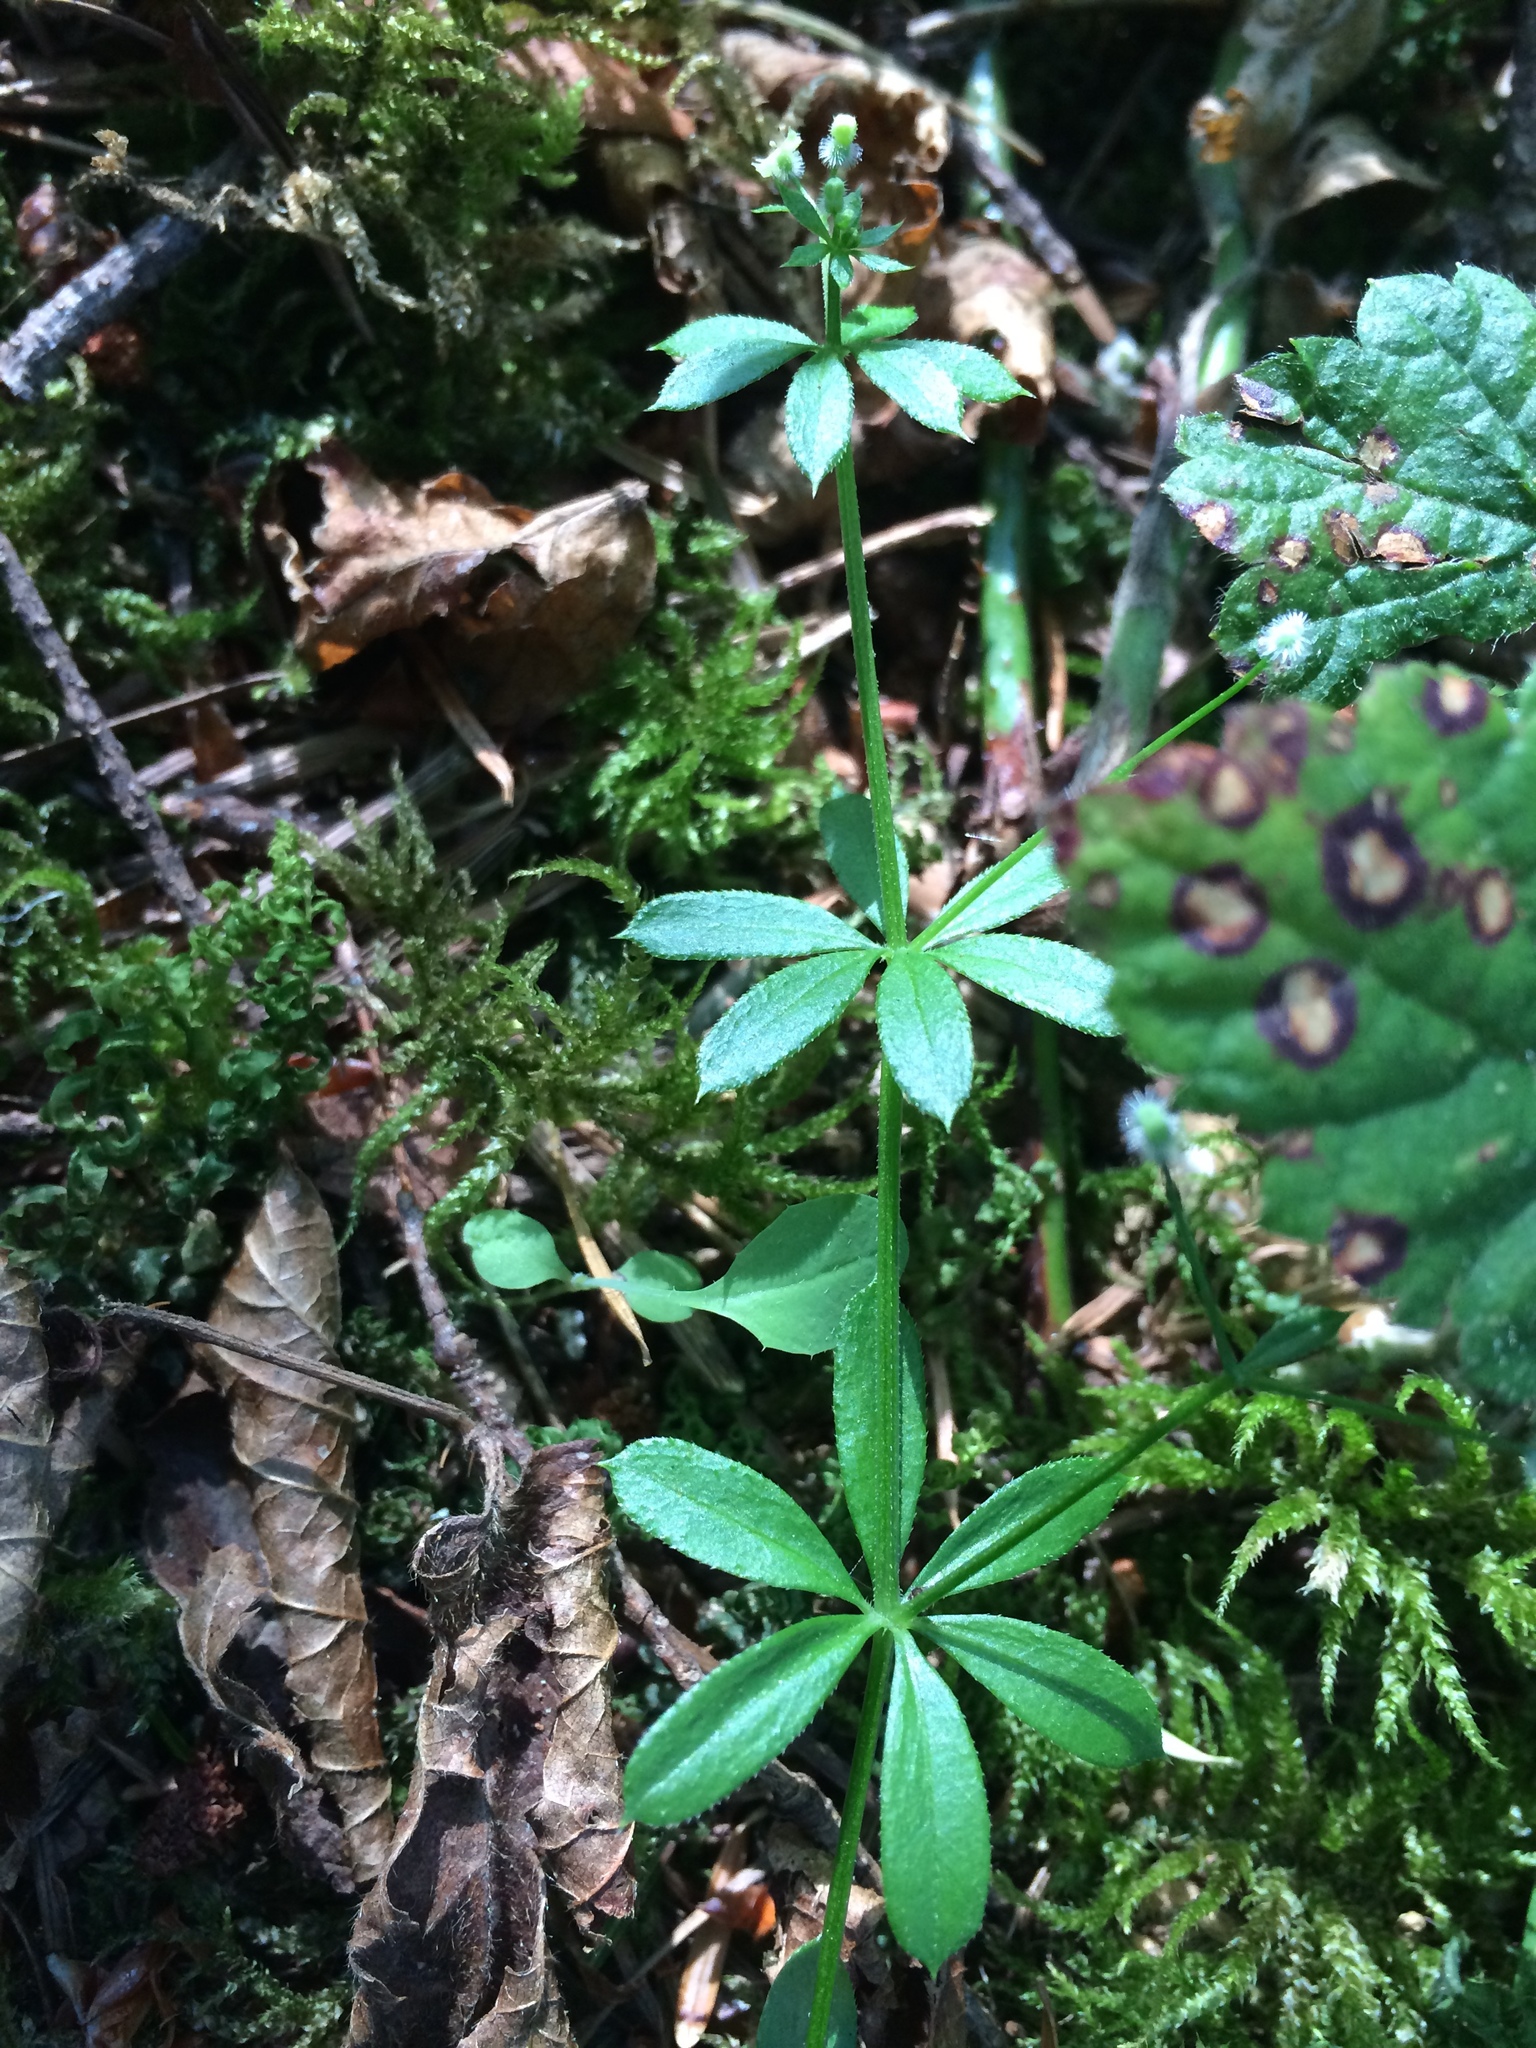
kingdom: Plantae
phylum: Tracheophyta
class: Magnoliopsida
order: Gentianales
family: Rubiaceae
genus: Galium
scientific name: Galium triflorum
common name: Fragrant bedstraw
